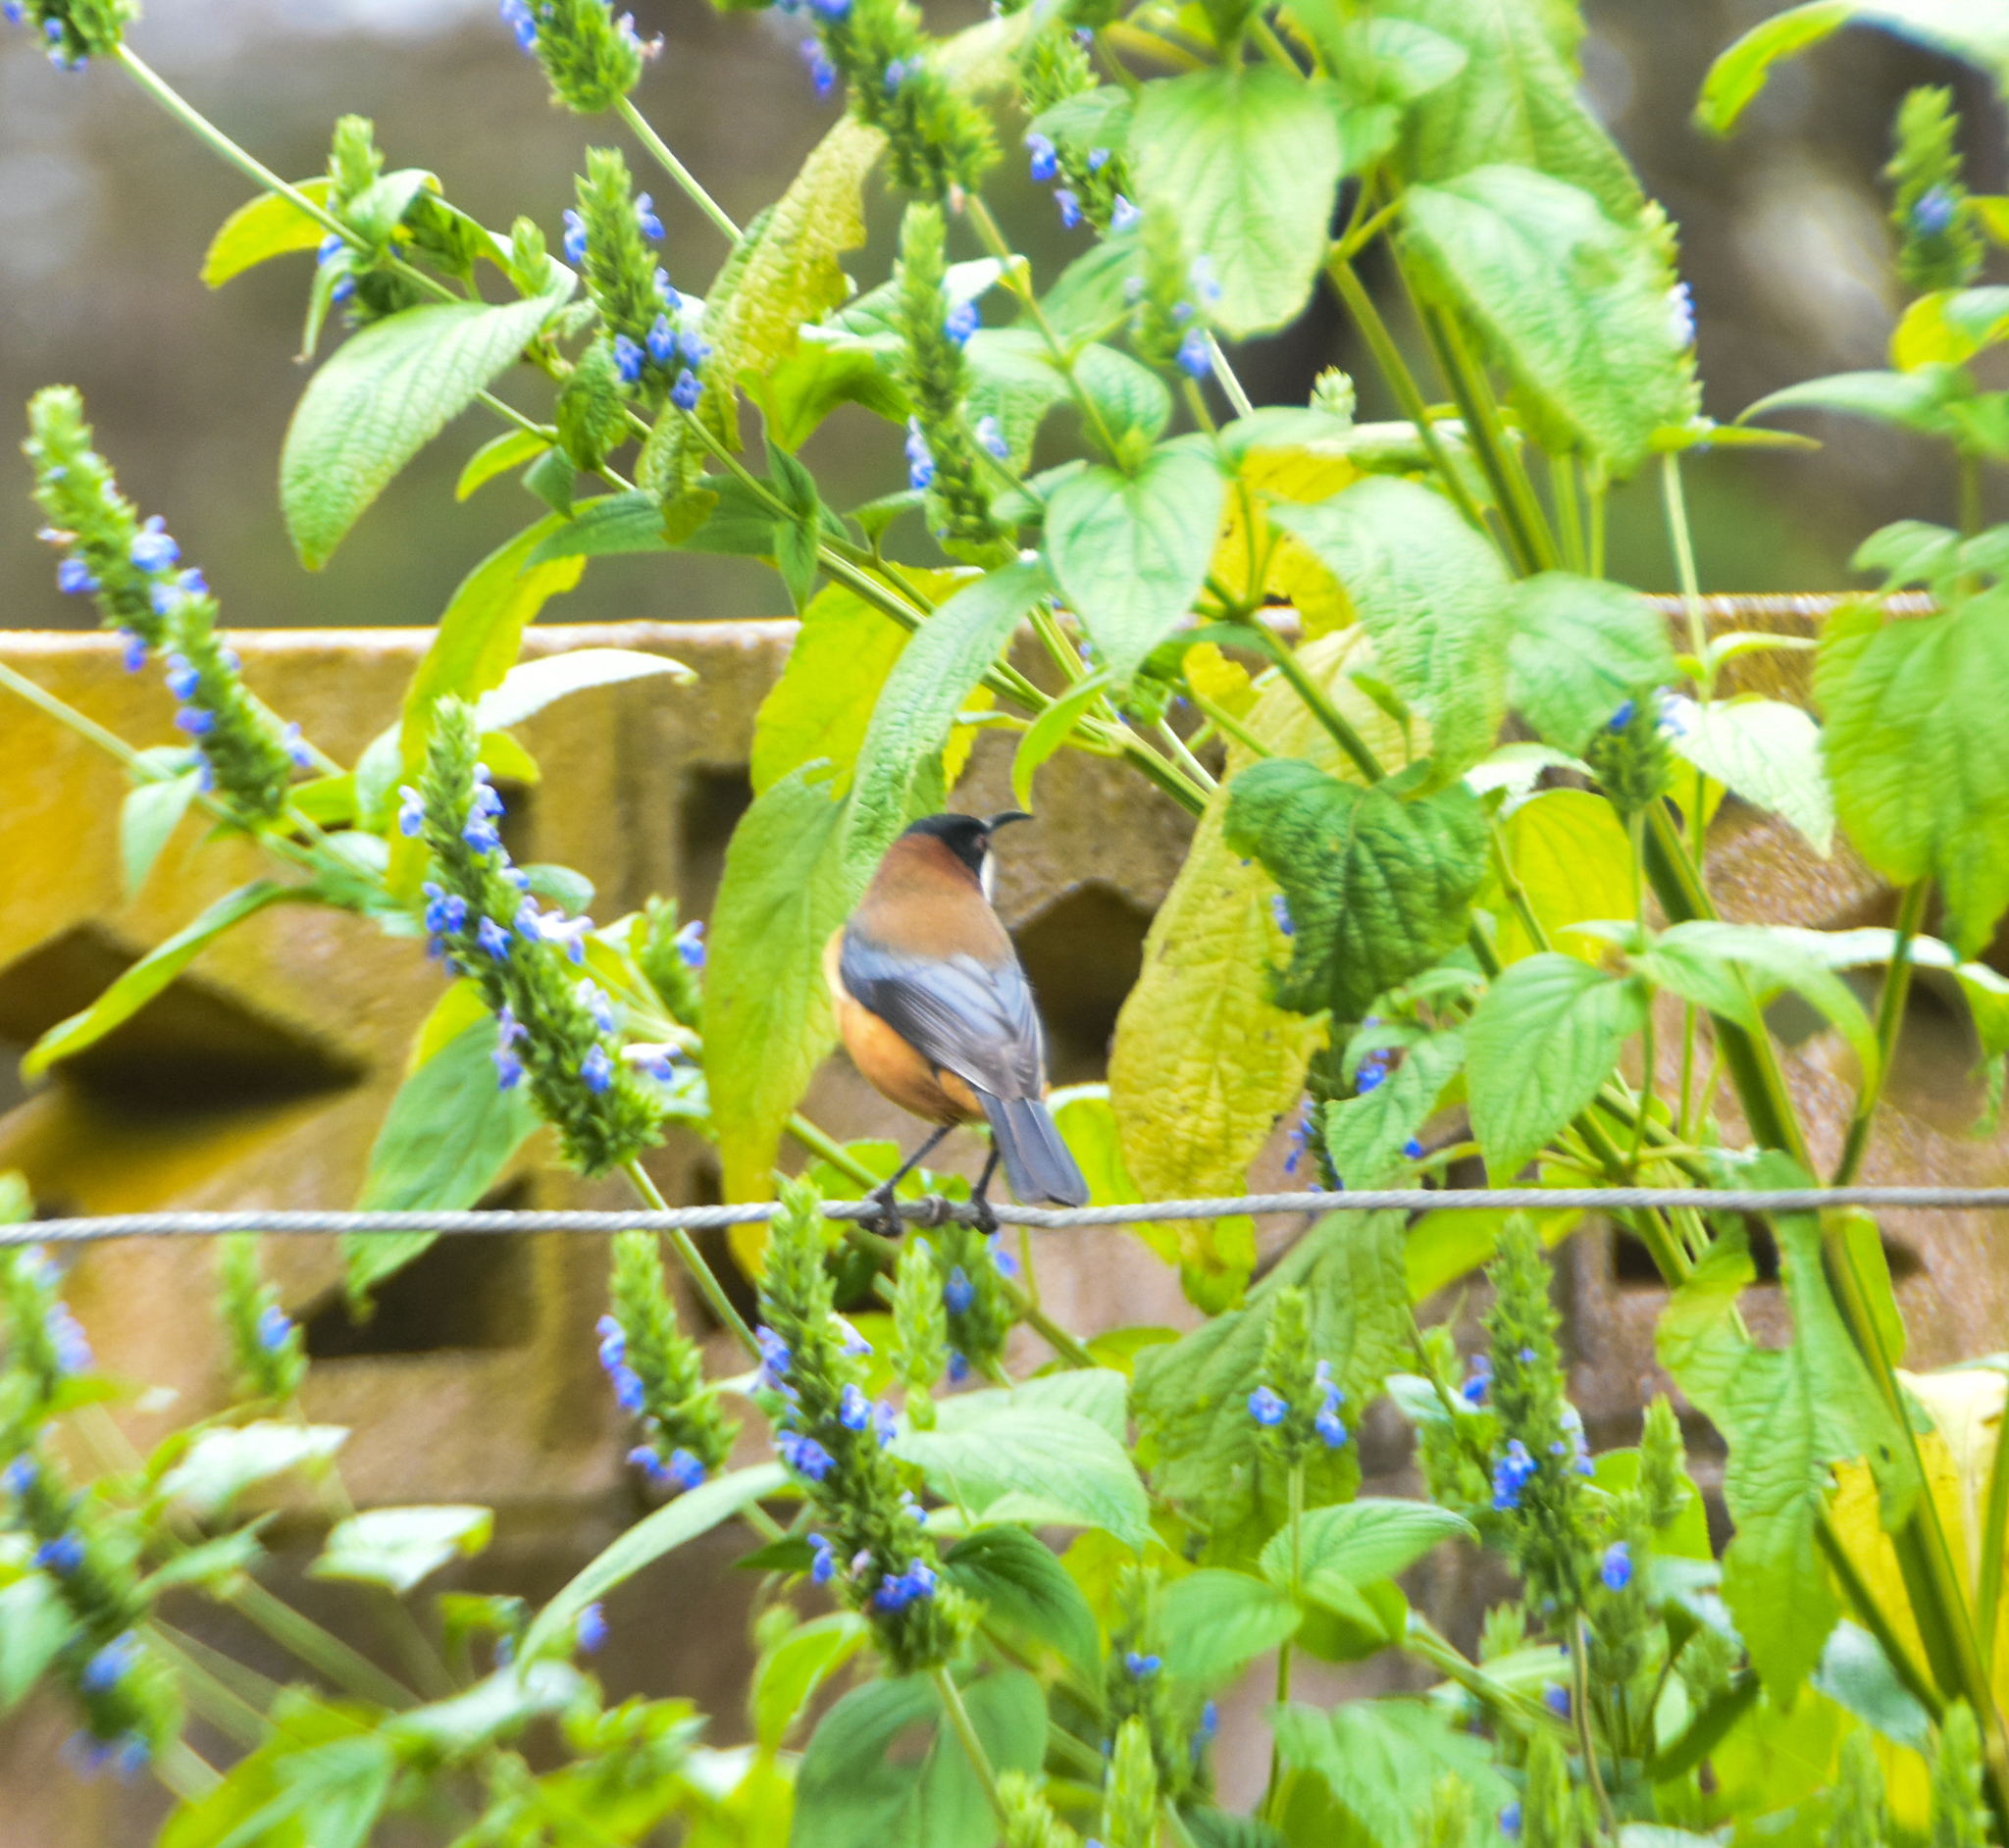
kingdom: Animalia
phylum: Chordata
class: Aves
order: Passeriformes
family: Meliphagidae
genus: Acanthorhynchus
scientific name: Acanthorhynchus tenuirostris
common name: Eastern spinebill
